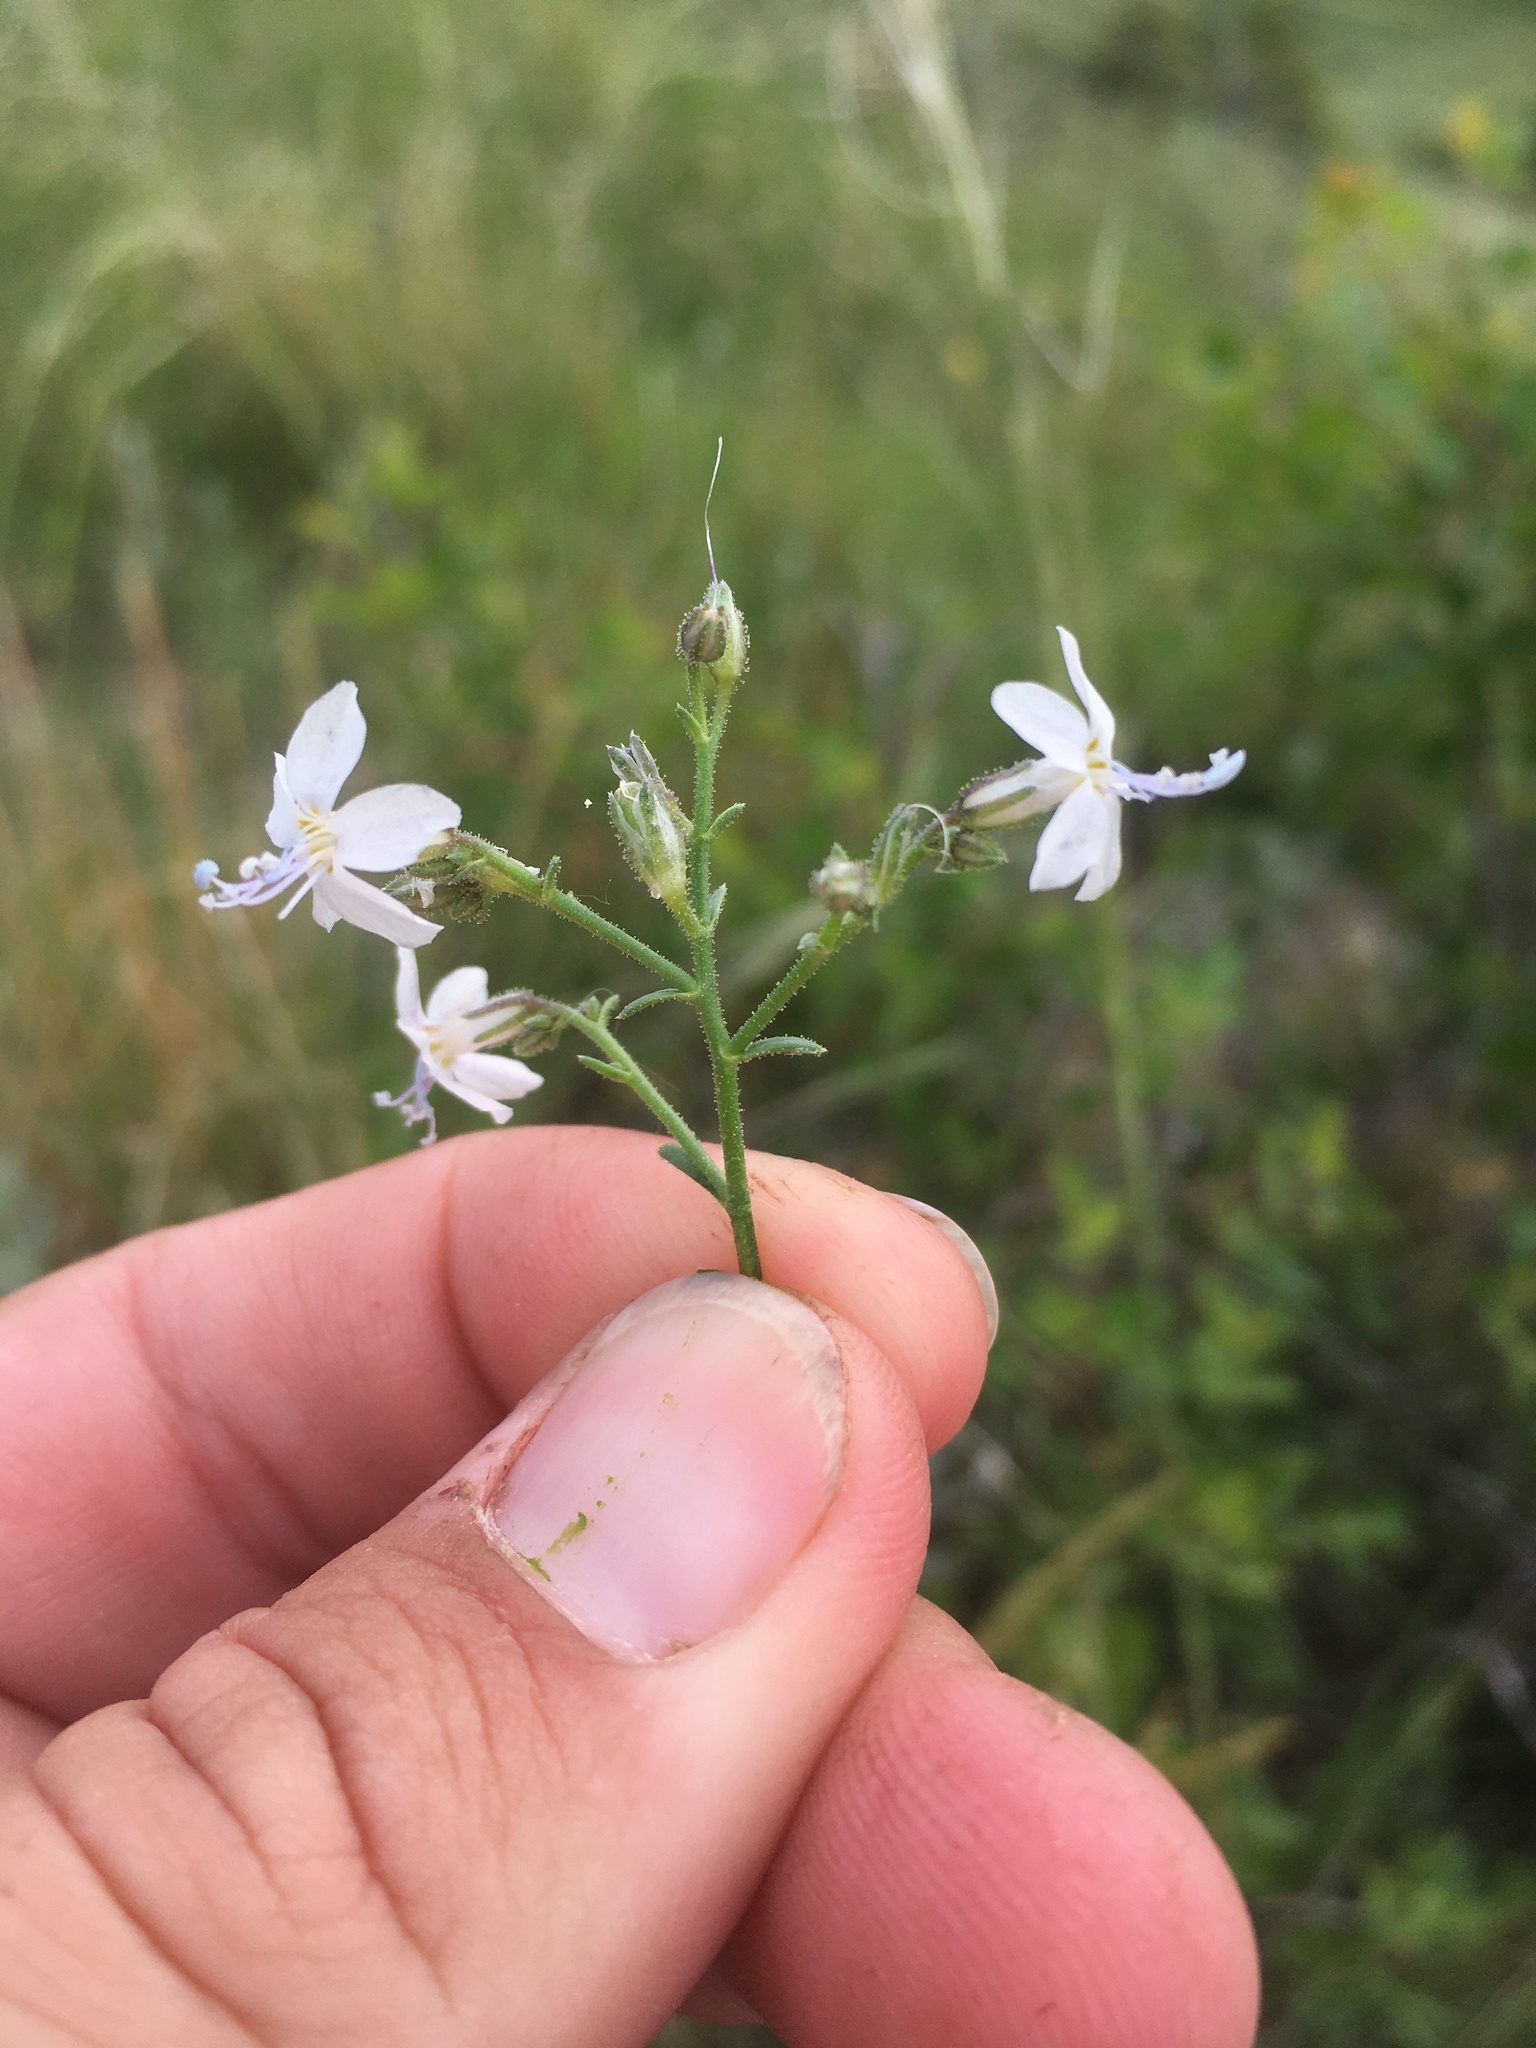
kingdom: Plantae
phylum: Tracheophyta
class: Magnoliopsida
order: Ericales
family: Polemoniaceae
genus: Aliciella
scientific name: Aliciella pinnatifida
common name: Sticky gilia
